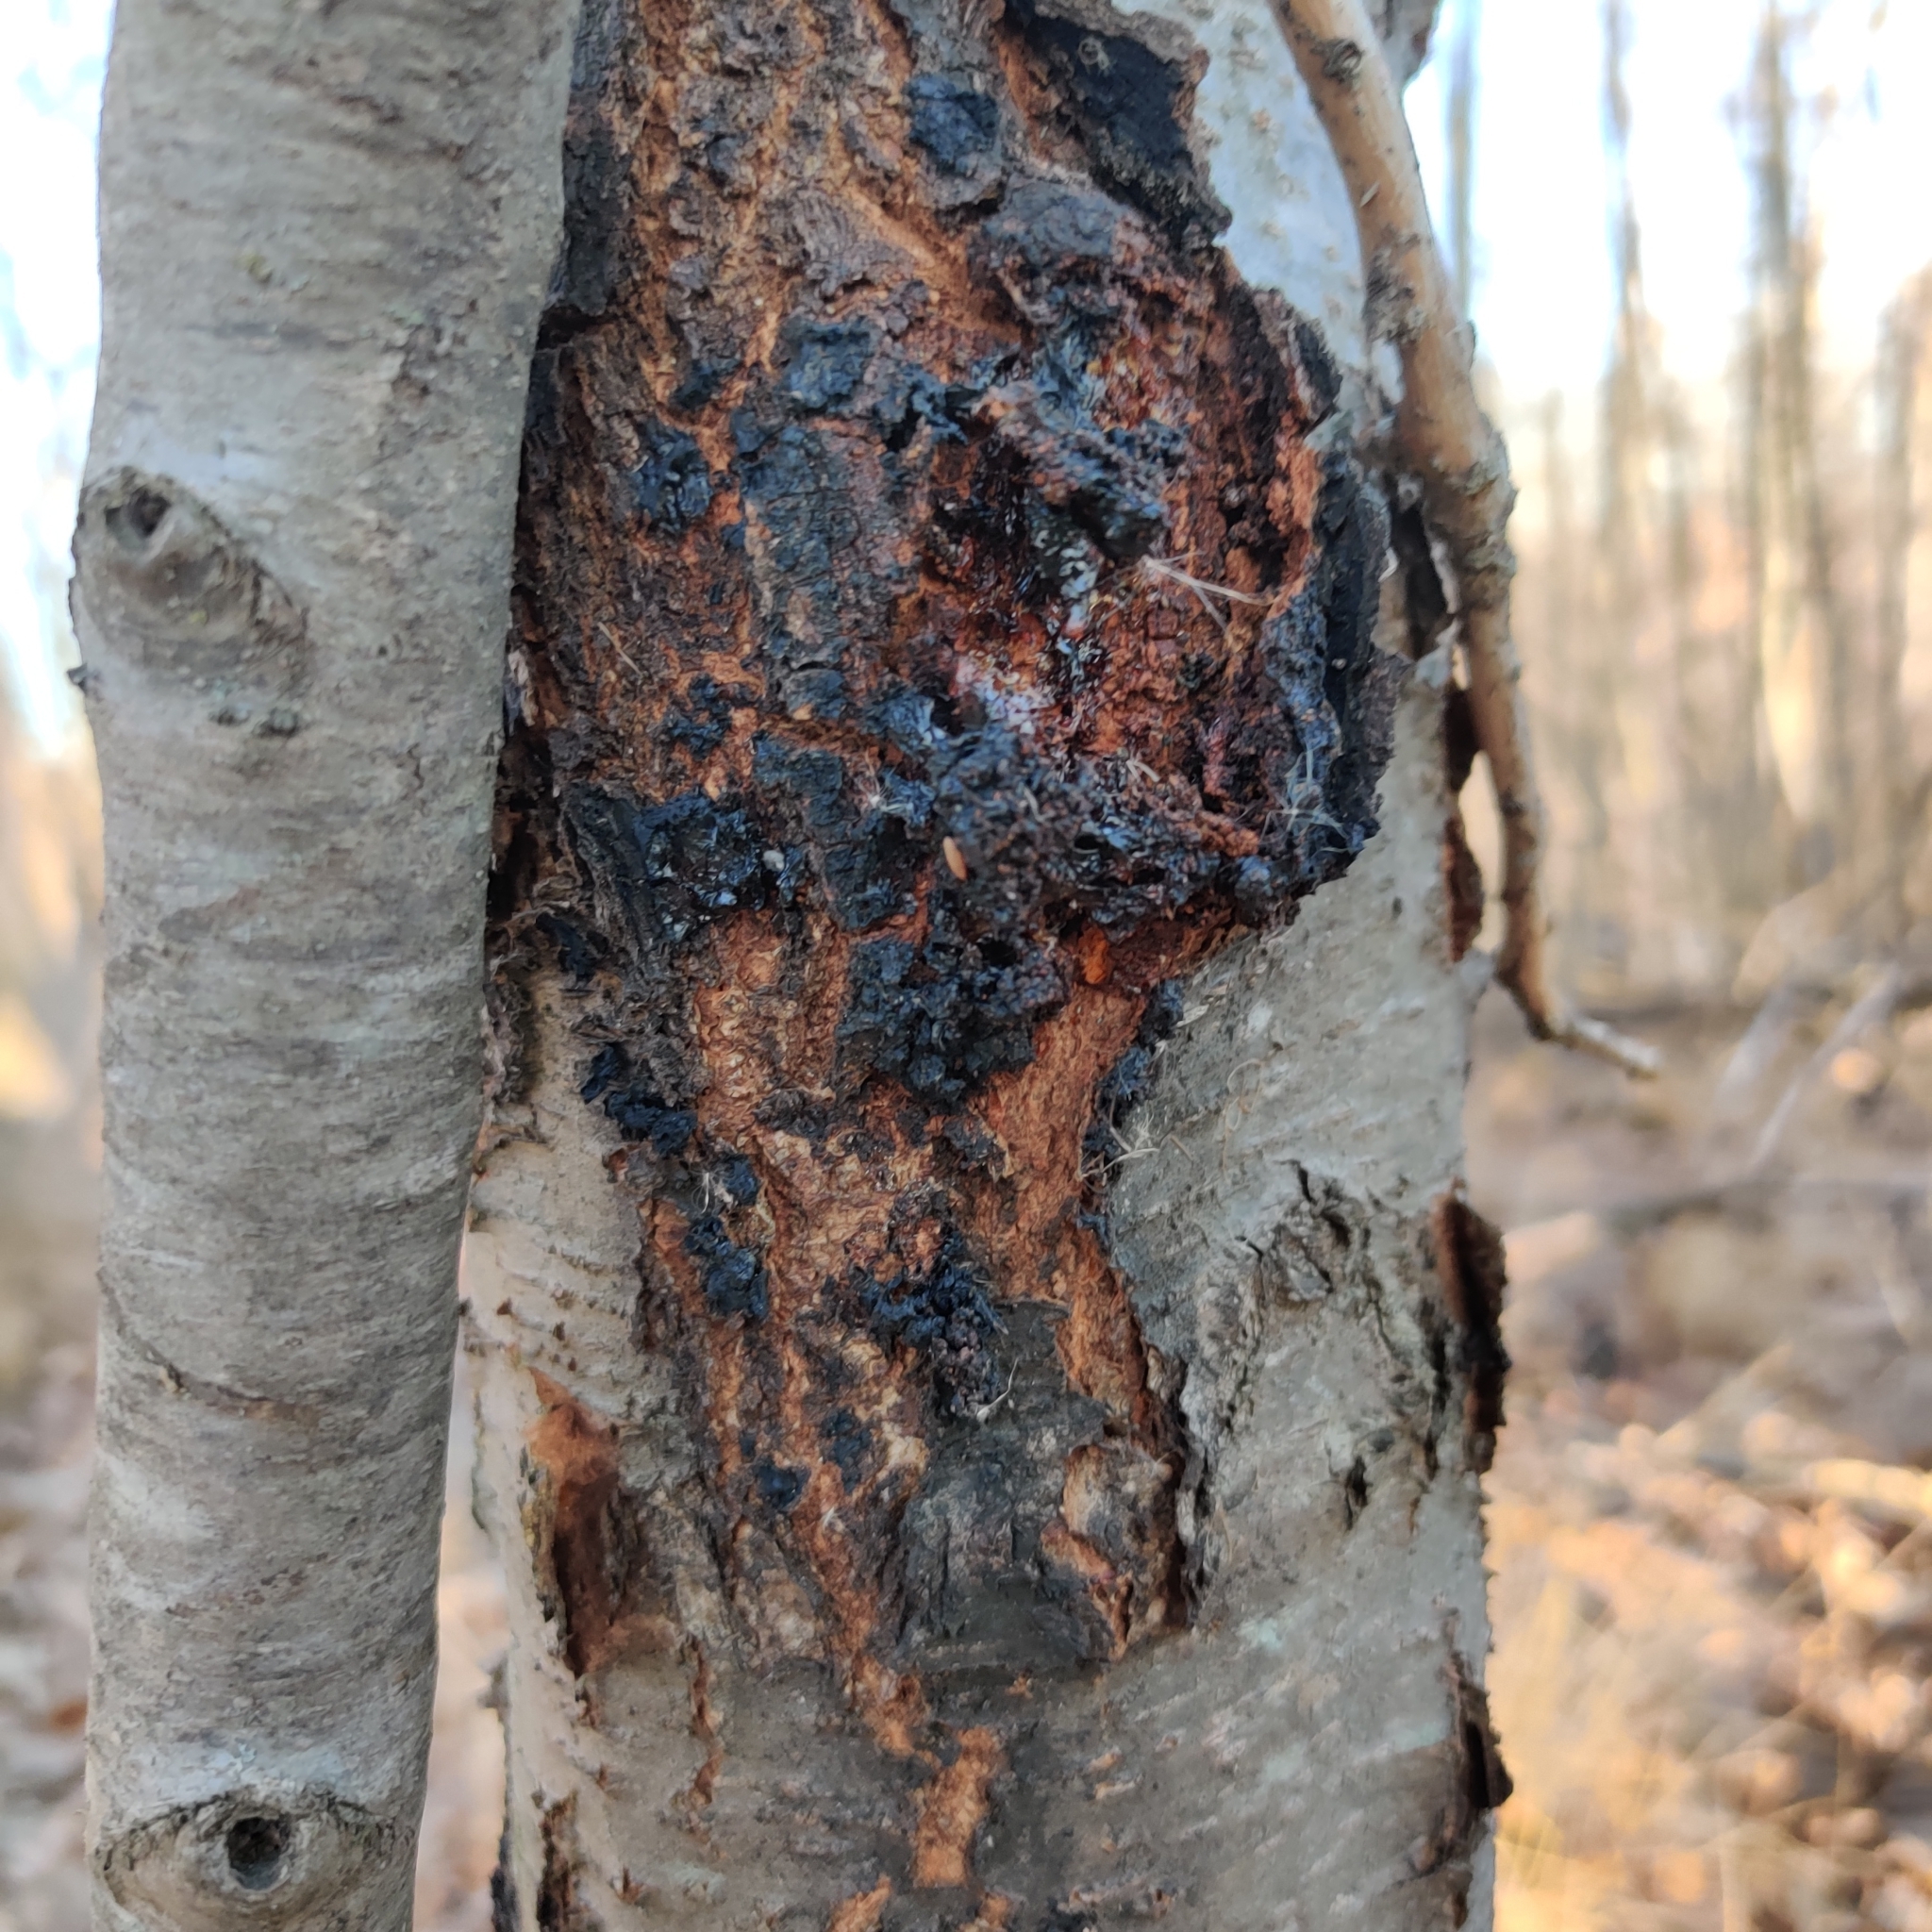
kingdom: Fungi
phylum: Ascomycota
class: Dothideomycetes
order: Venturiales
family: Venturiaceae
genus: Apiosporina
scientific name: Apiosporina morbosa
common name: Black knot
